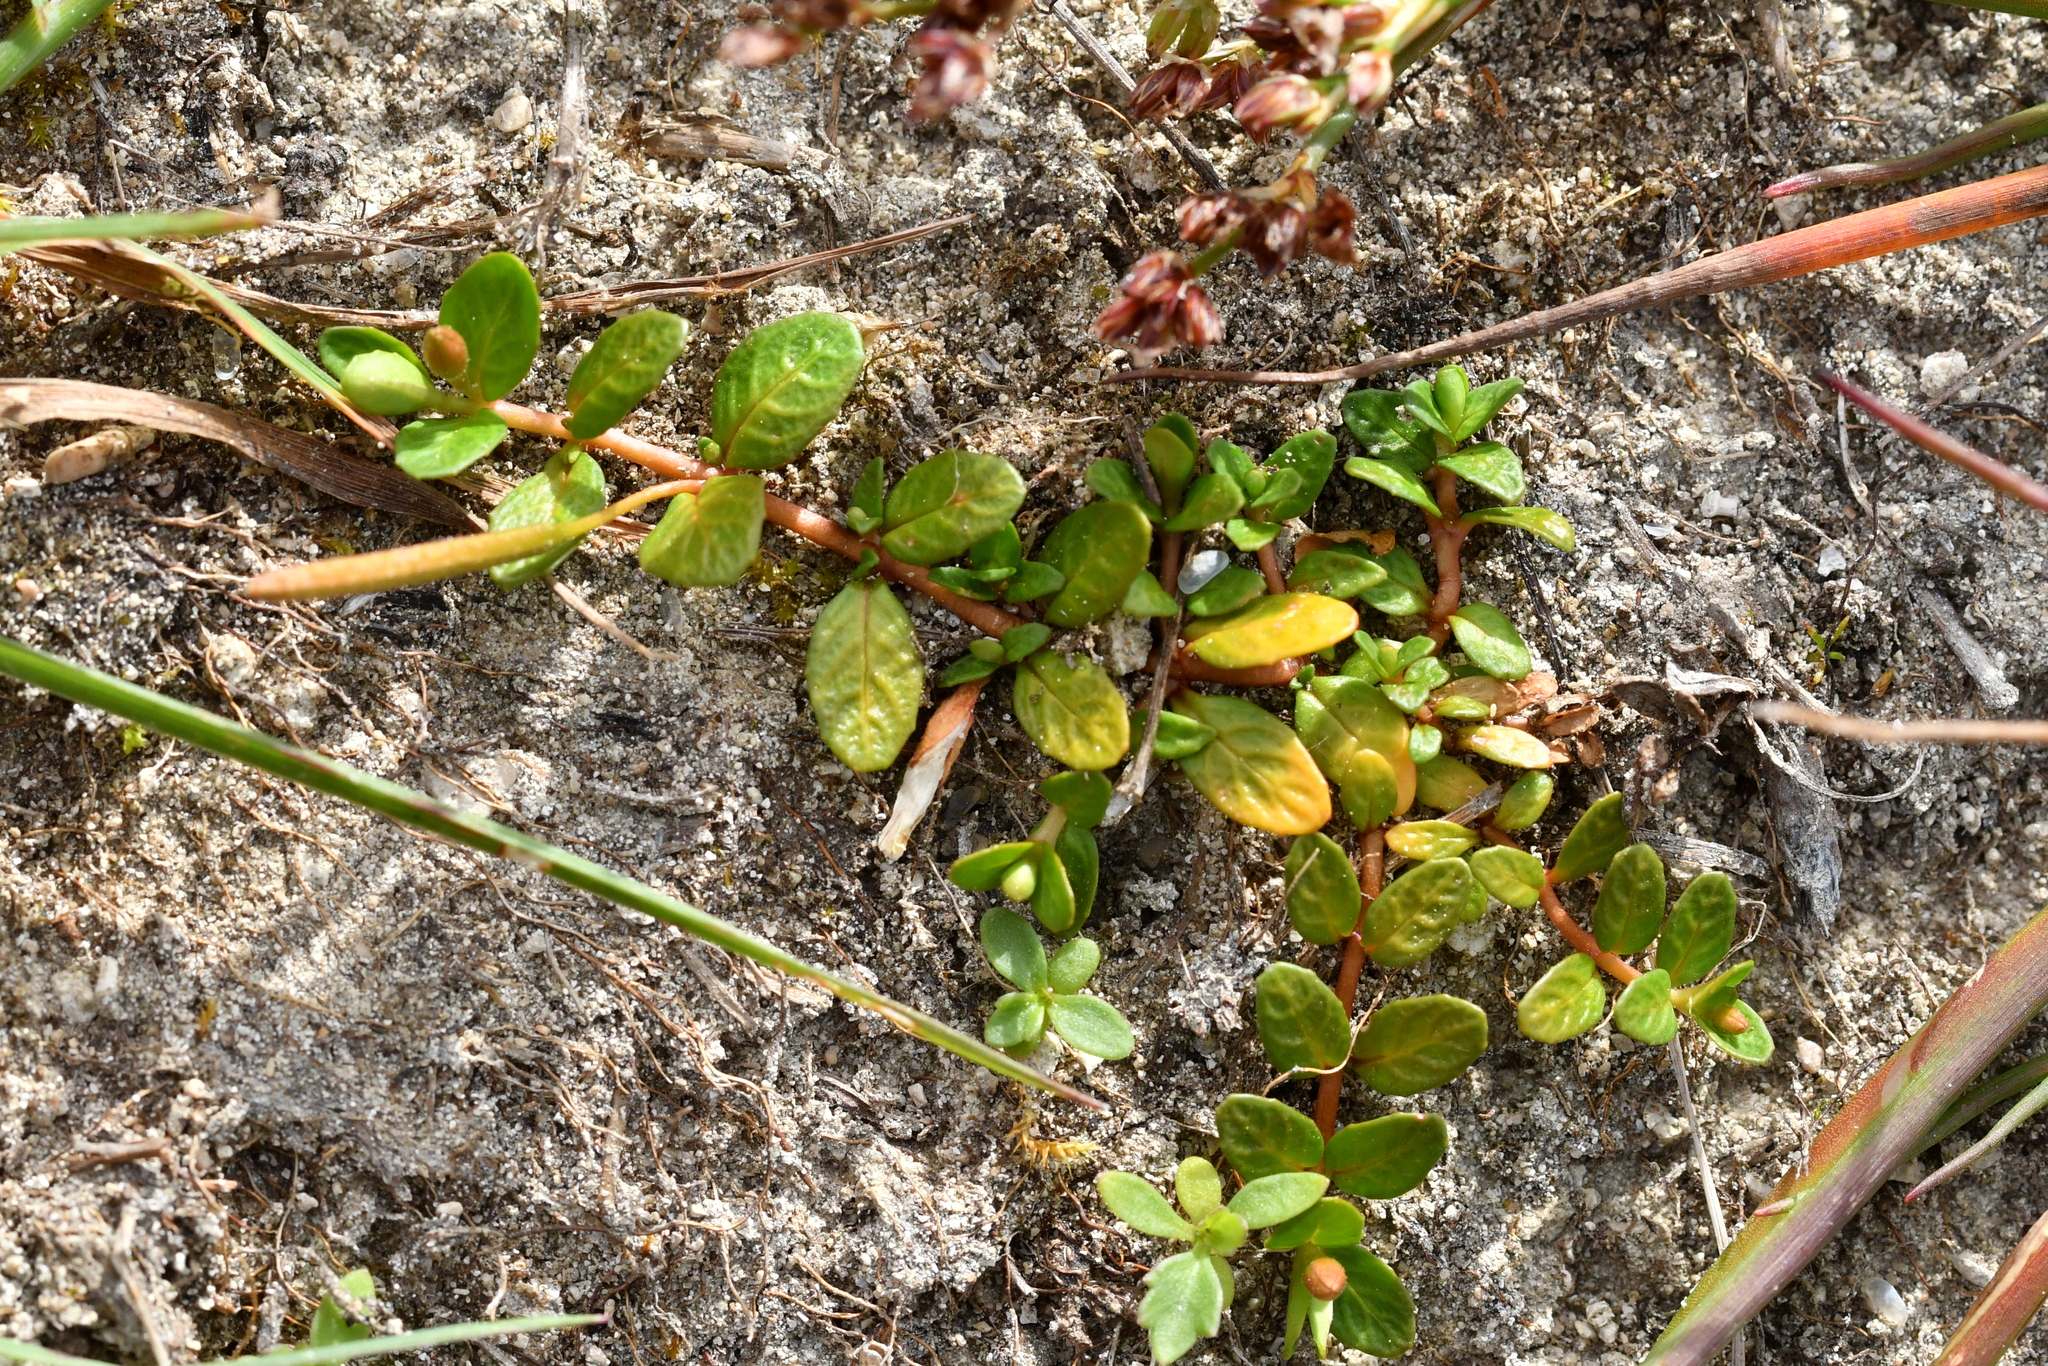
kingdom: Plantae
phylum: Tracheophyta
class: Magnoliopsida
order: Myrtales
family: Onagraceae
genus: Epilobium
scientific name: Epilobium komarovianum
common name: Bronzy willowherb
